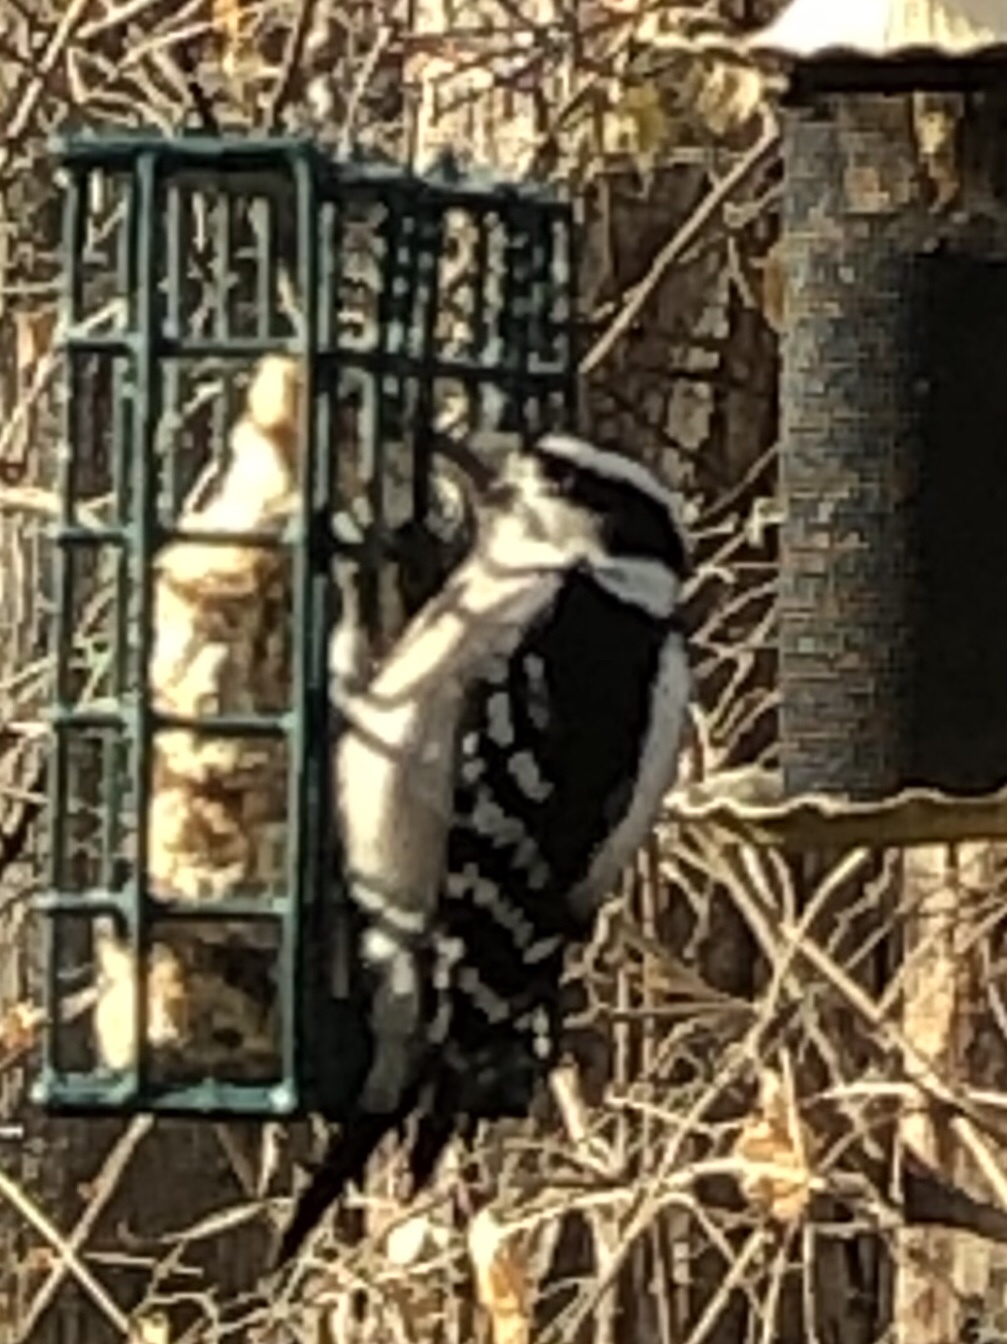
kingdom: Animalia
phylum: Chordata
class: Aves
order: Piciformes
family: Picidae
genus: Dryobates
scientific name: Dryobates pubescens
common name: Downy woodpecker
